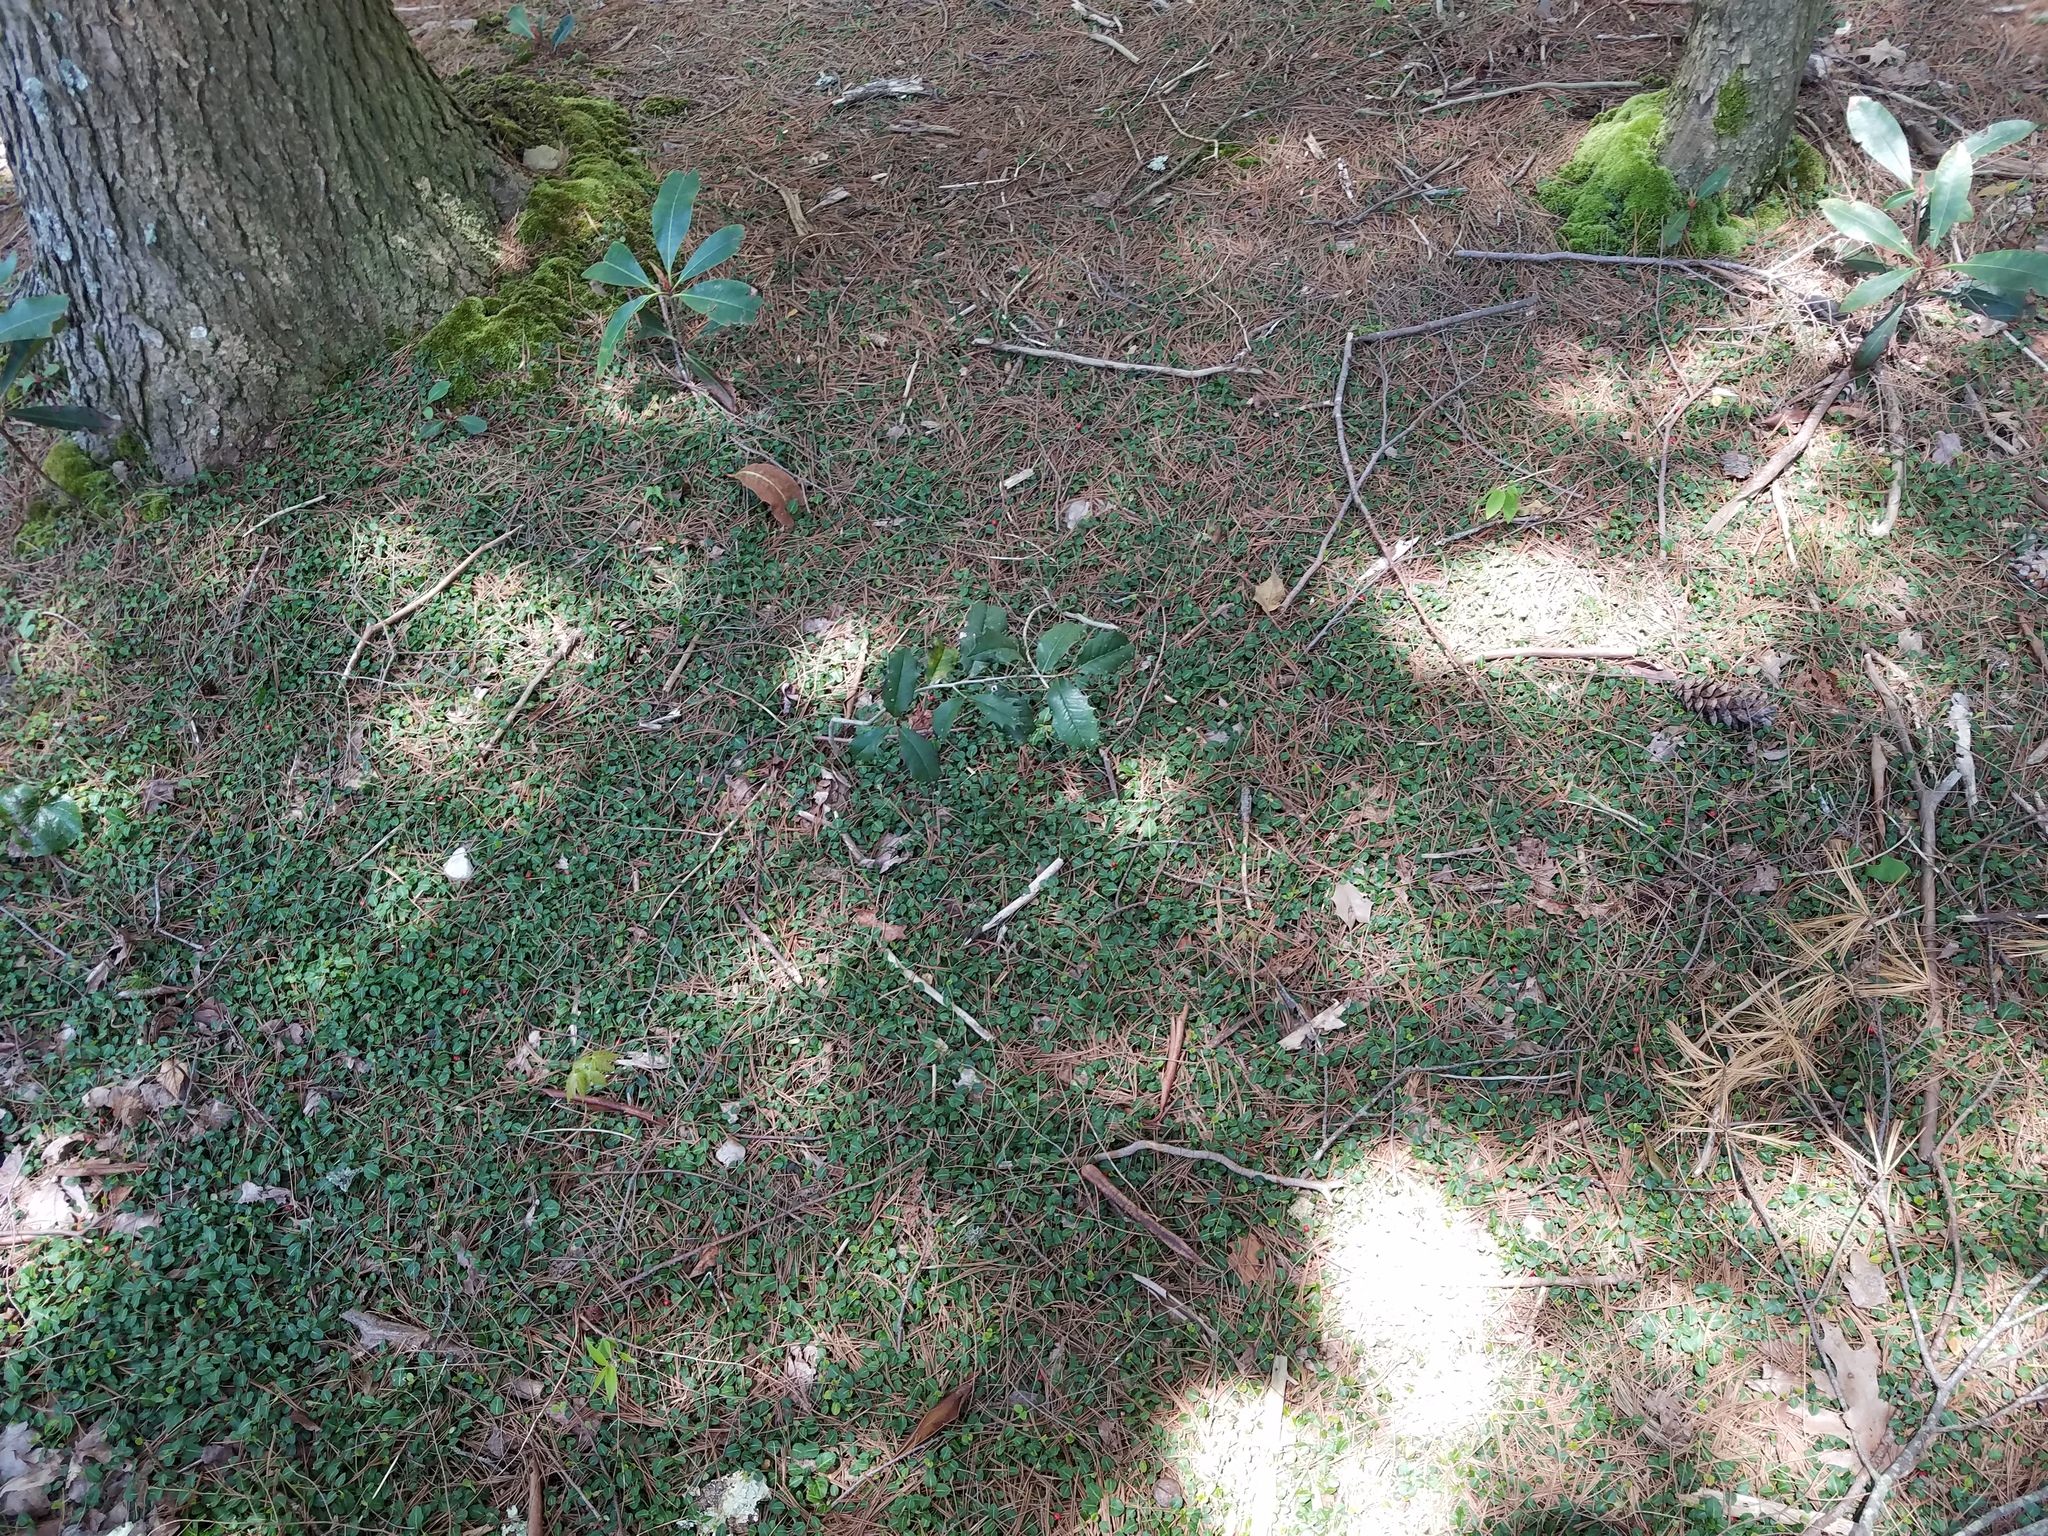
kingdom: Plantae
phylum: Tracheophyta
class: Magnoliopsida
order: Gentianales
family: Rubiaceae
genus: Mitchella
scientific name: Mitchella repens
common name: Partridge-berry
